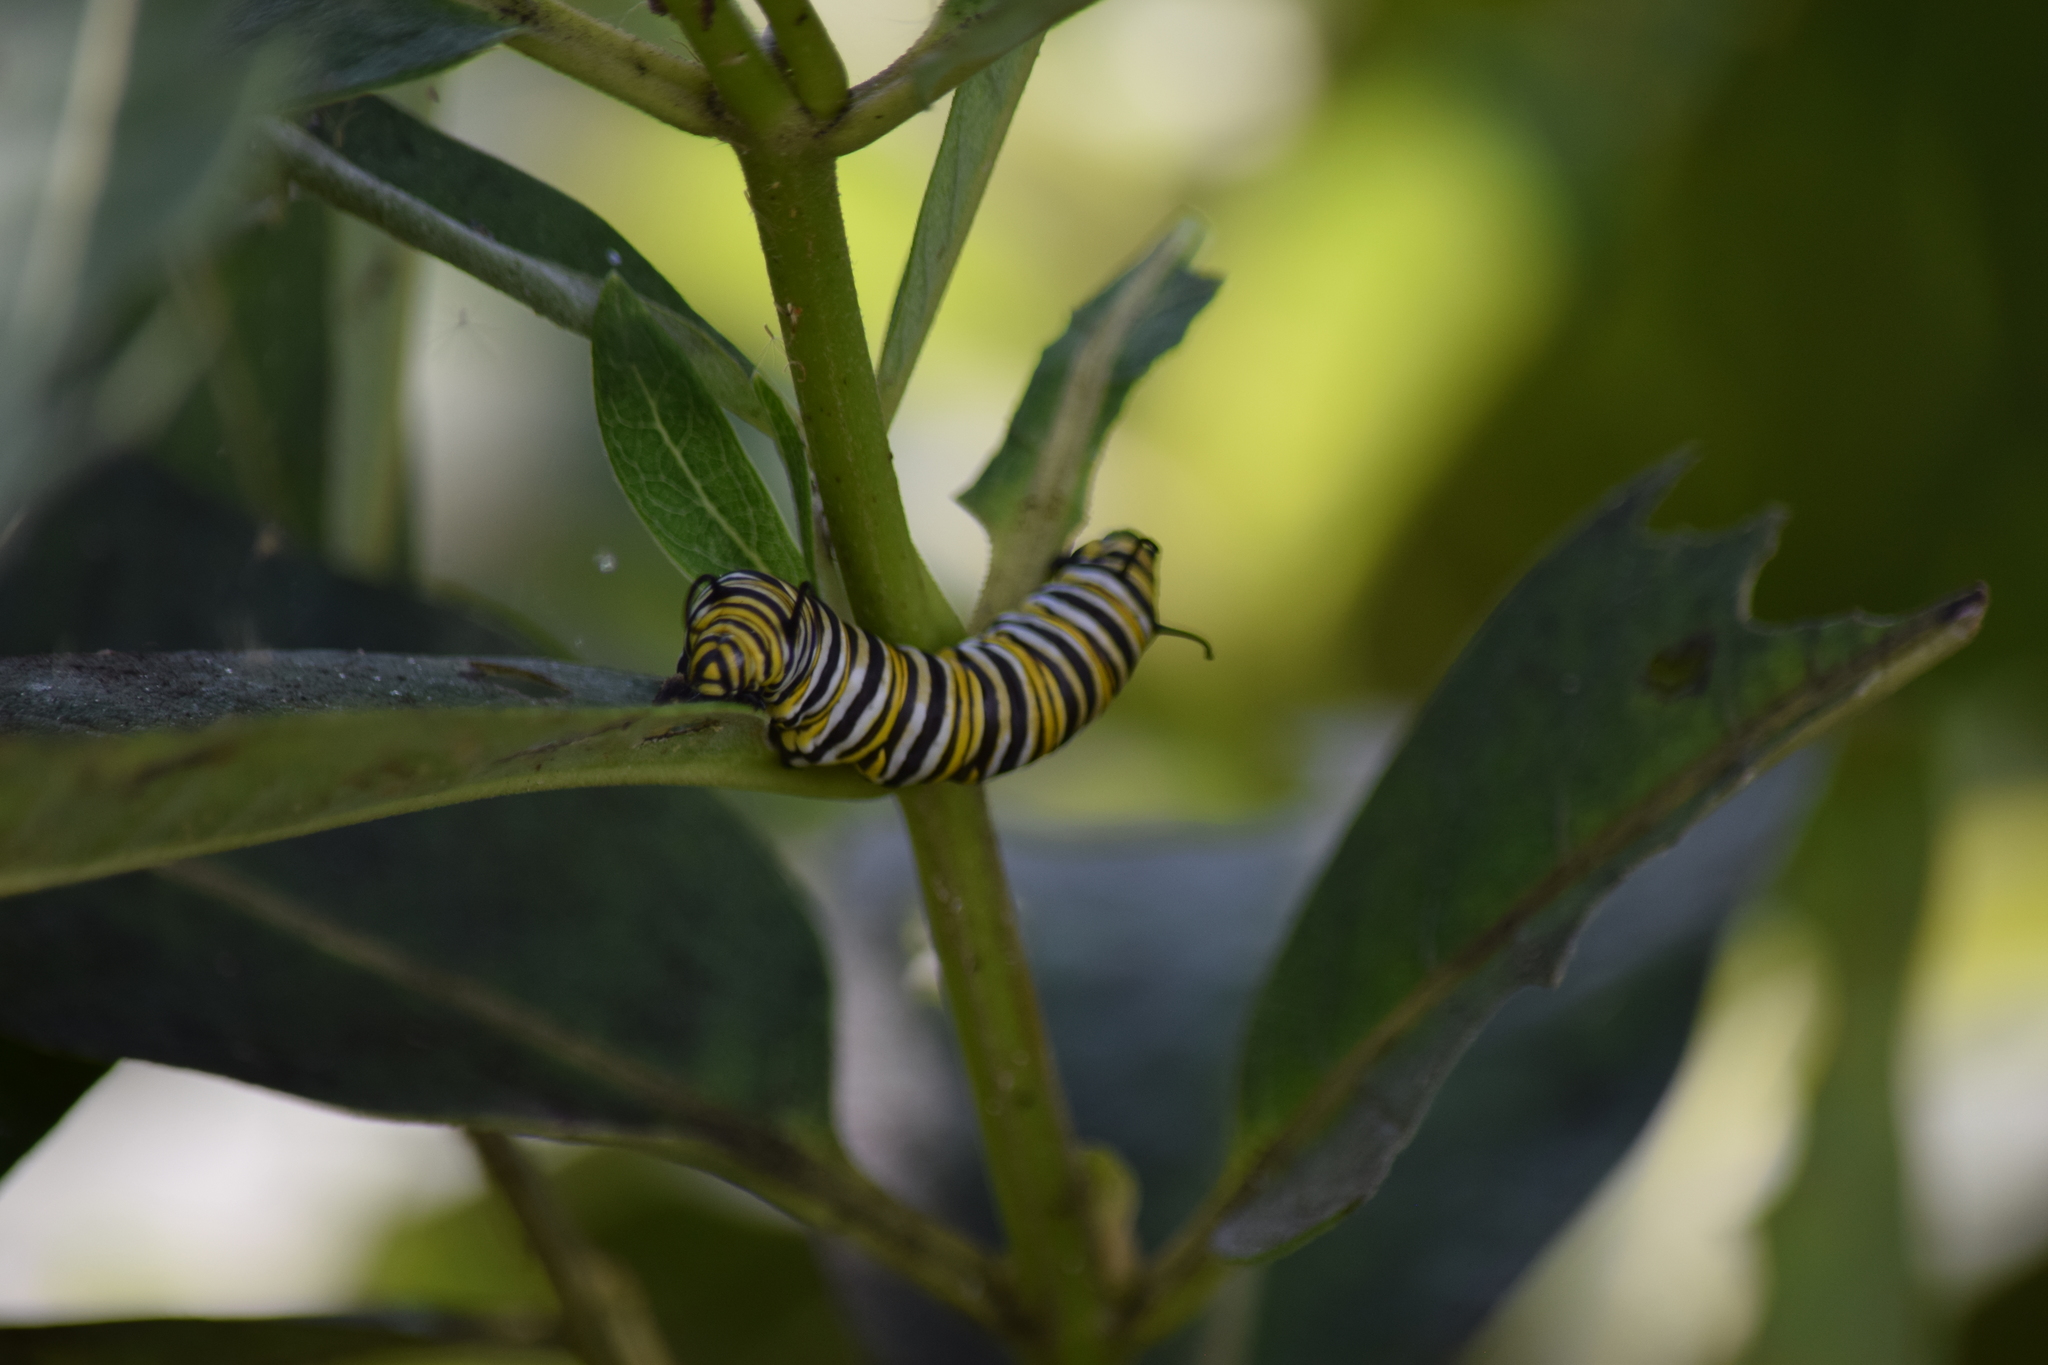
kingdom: Animalia
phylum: Arthropoda
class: Insecta
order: Lepidoptera
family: Nymphalidae
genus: Danaus
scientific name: Danaus plexippus
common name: Monarch
